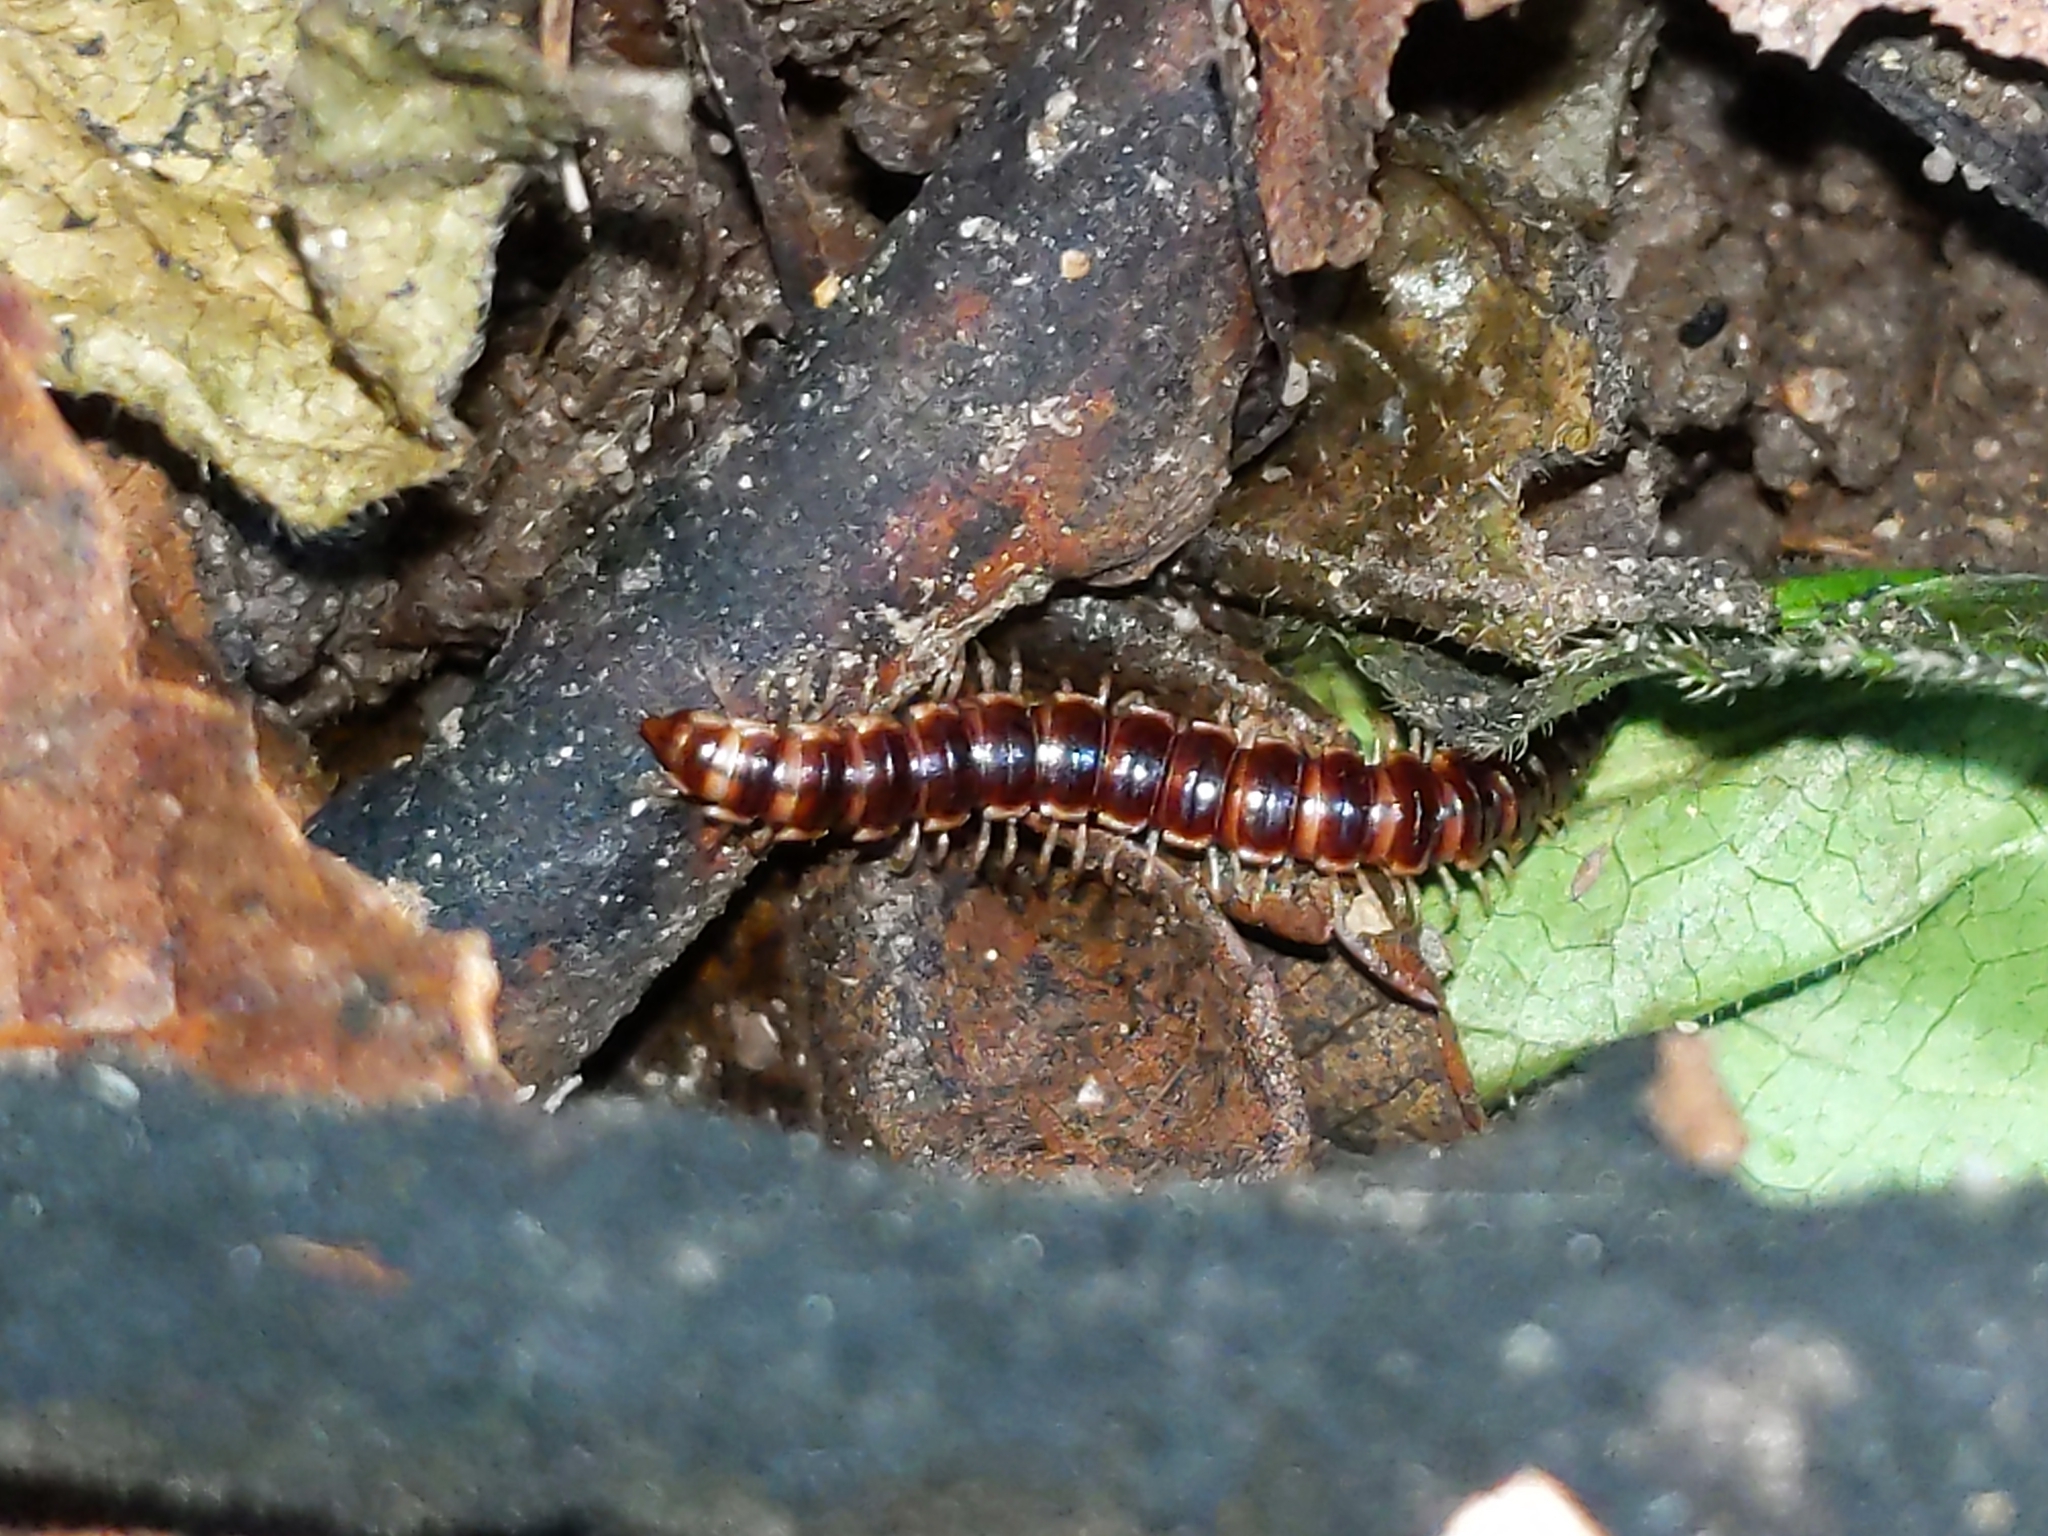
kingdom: Animalia
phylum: Arthropoda
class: Diplopoda
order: Polydesmida
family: Paradoxosomatidae
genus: Oxidus
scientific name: Oxidus gracilis
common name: Greenhouse millipede
